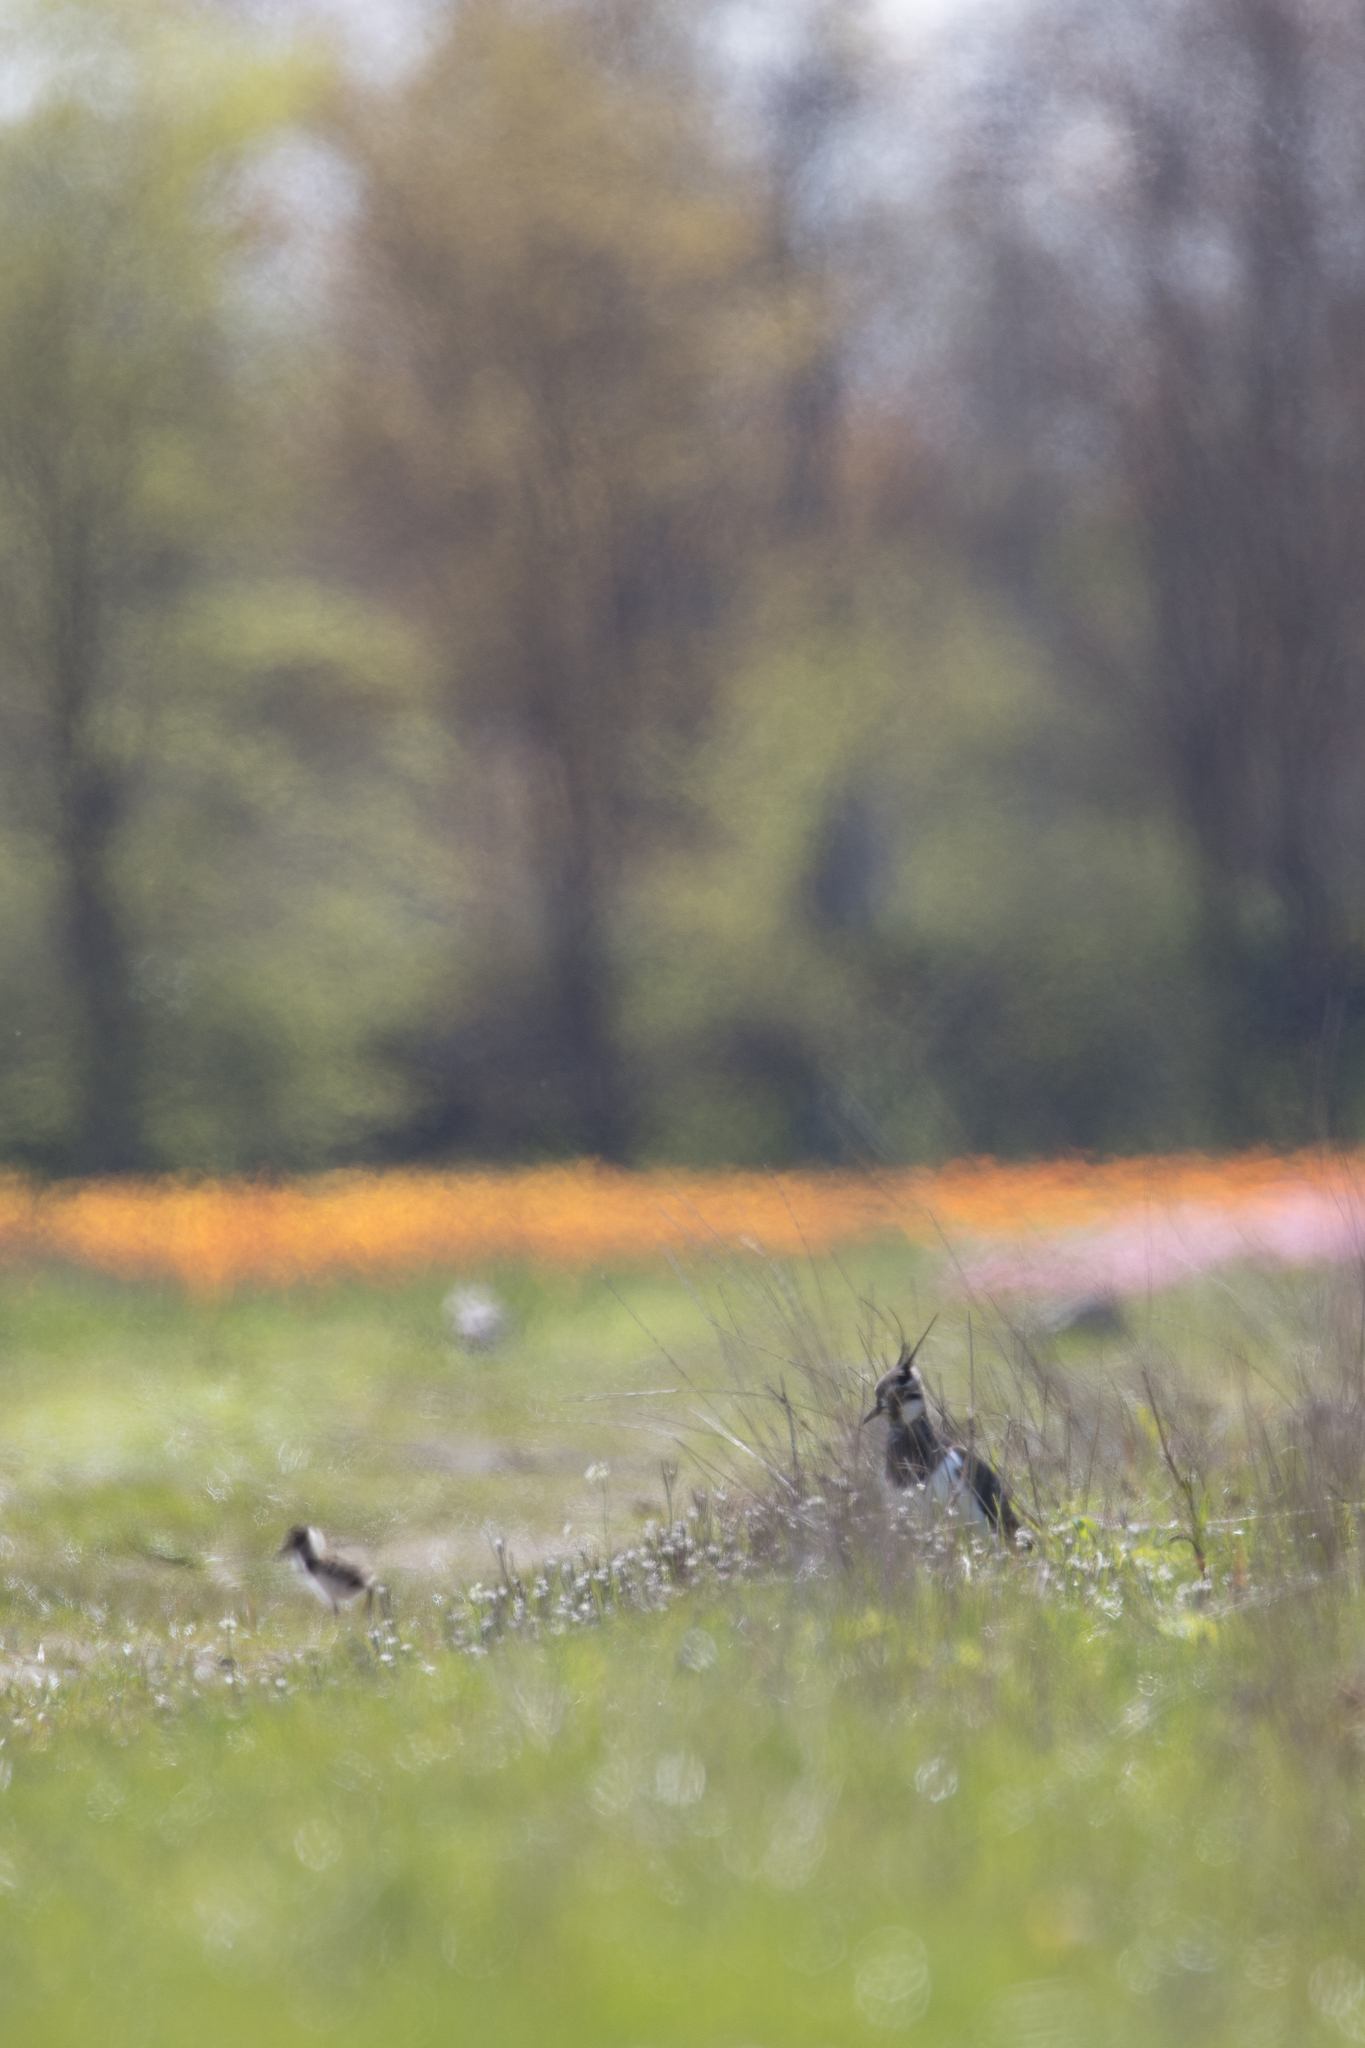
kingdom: Animalia
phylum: Chordata
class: Aves
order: Charadriiformes
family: Charadriidae
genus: Vanellus
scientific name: Vanellus vanellus
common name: Northern lapwing
